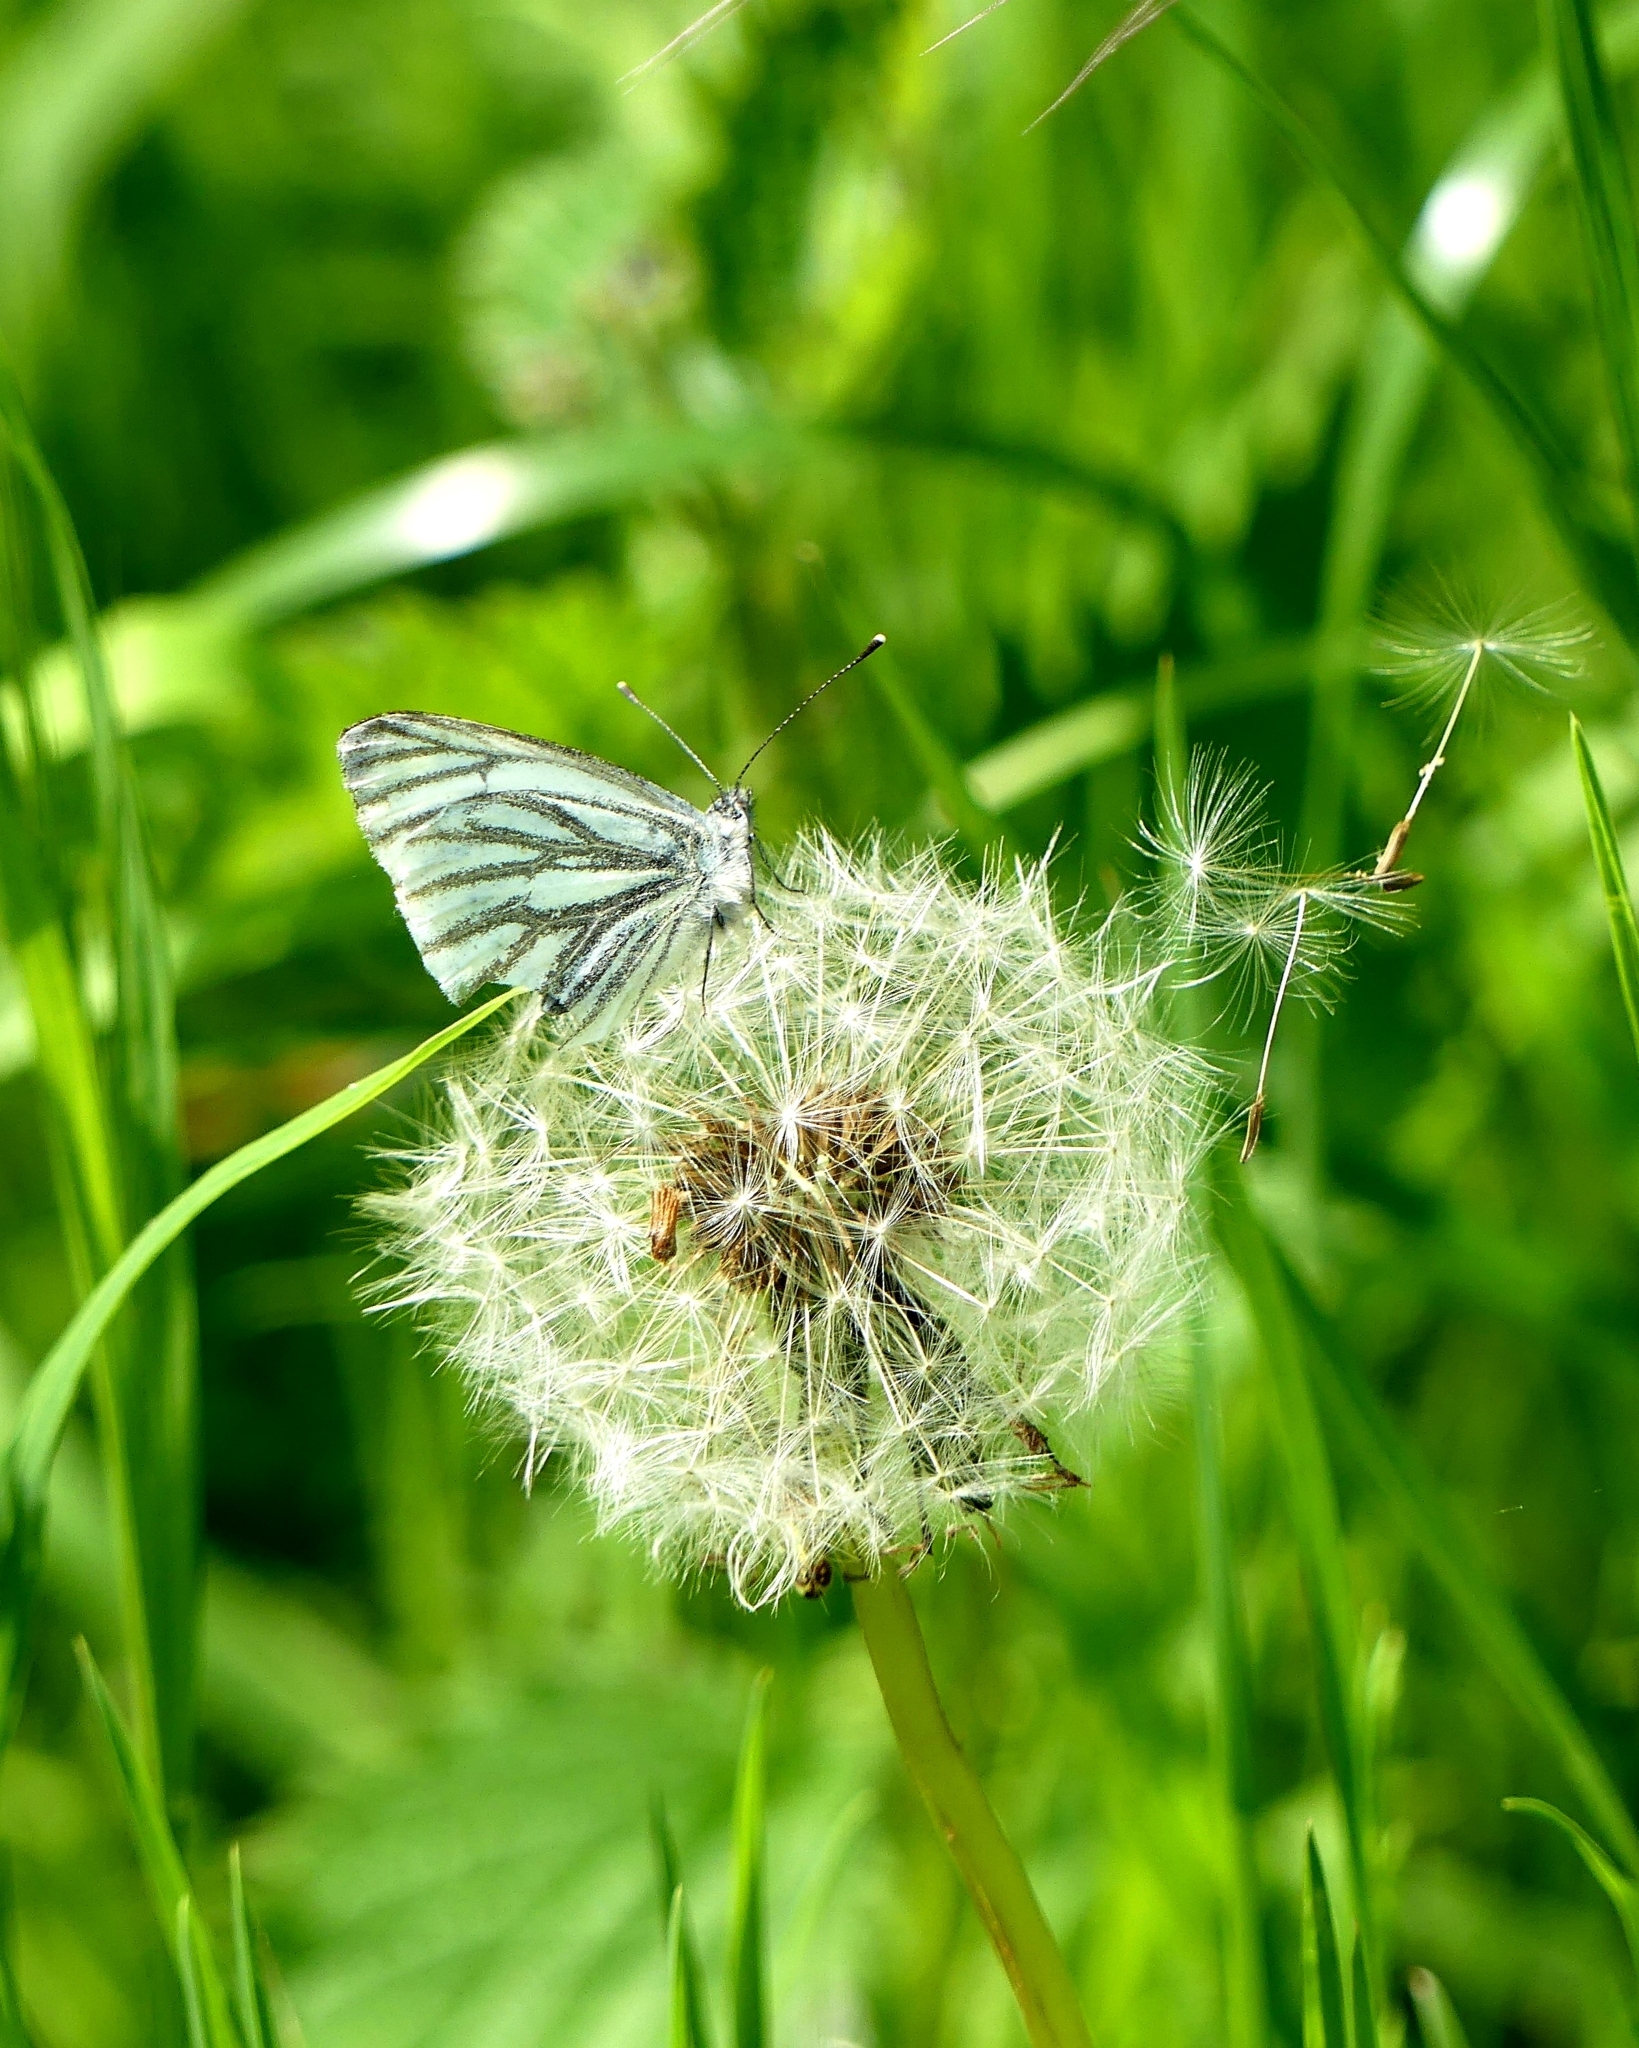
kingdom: Animalia
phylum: Arthropoda
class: Insecta
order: Lepidoptera
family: Pieridae
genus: Pieris
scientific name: Pieris napi
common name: Green-veined white
